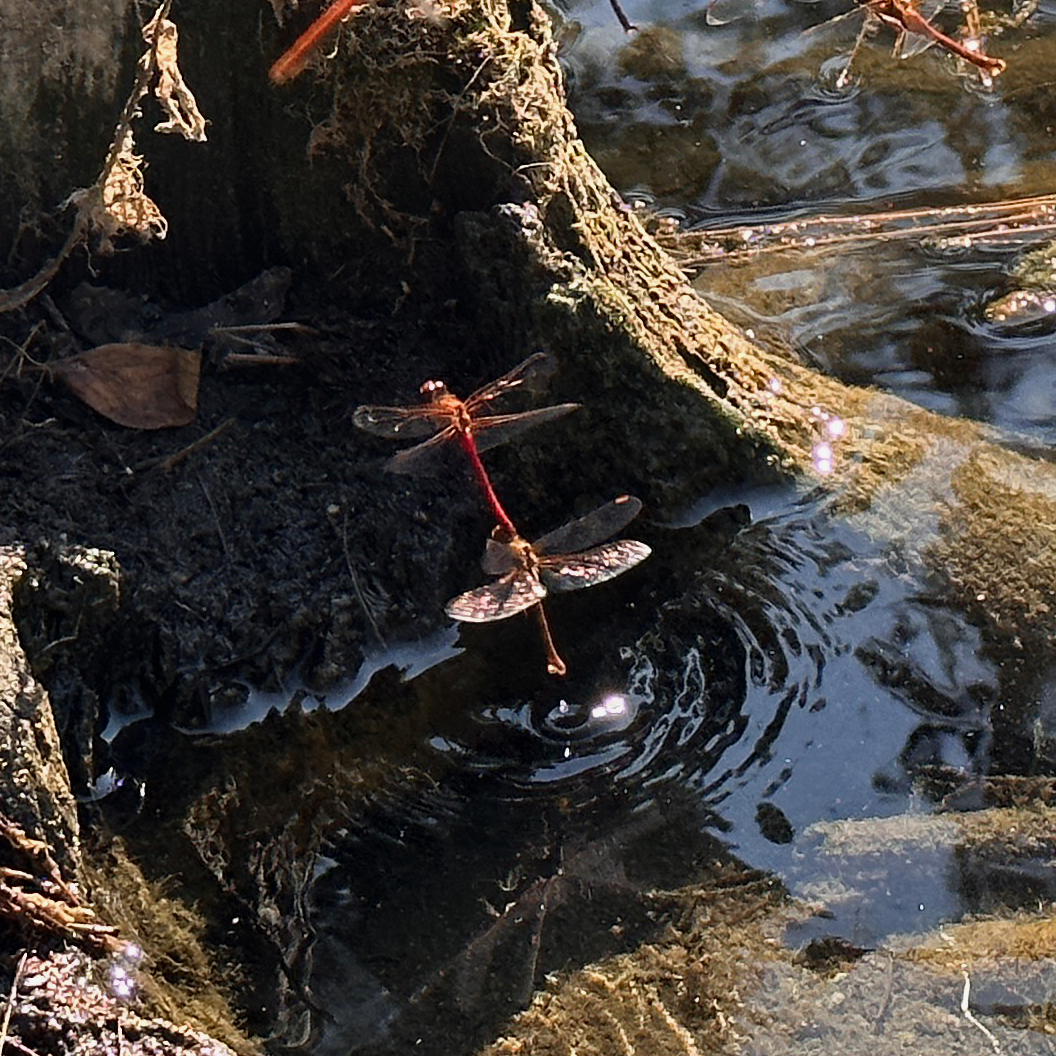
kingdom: Animalia
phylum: Arthropoda
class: Insecta
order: Odonata
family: Libellulidae
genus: Sympetrum
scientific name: Sympetrum vicinum
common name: Autumn meadowhawk
